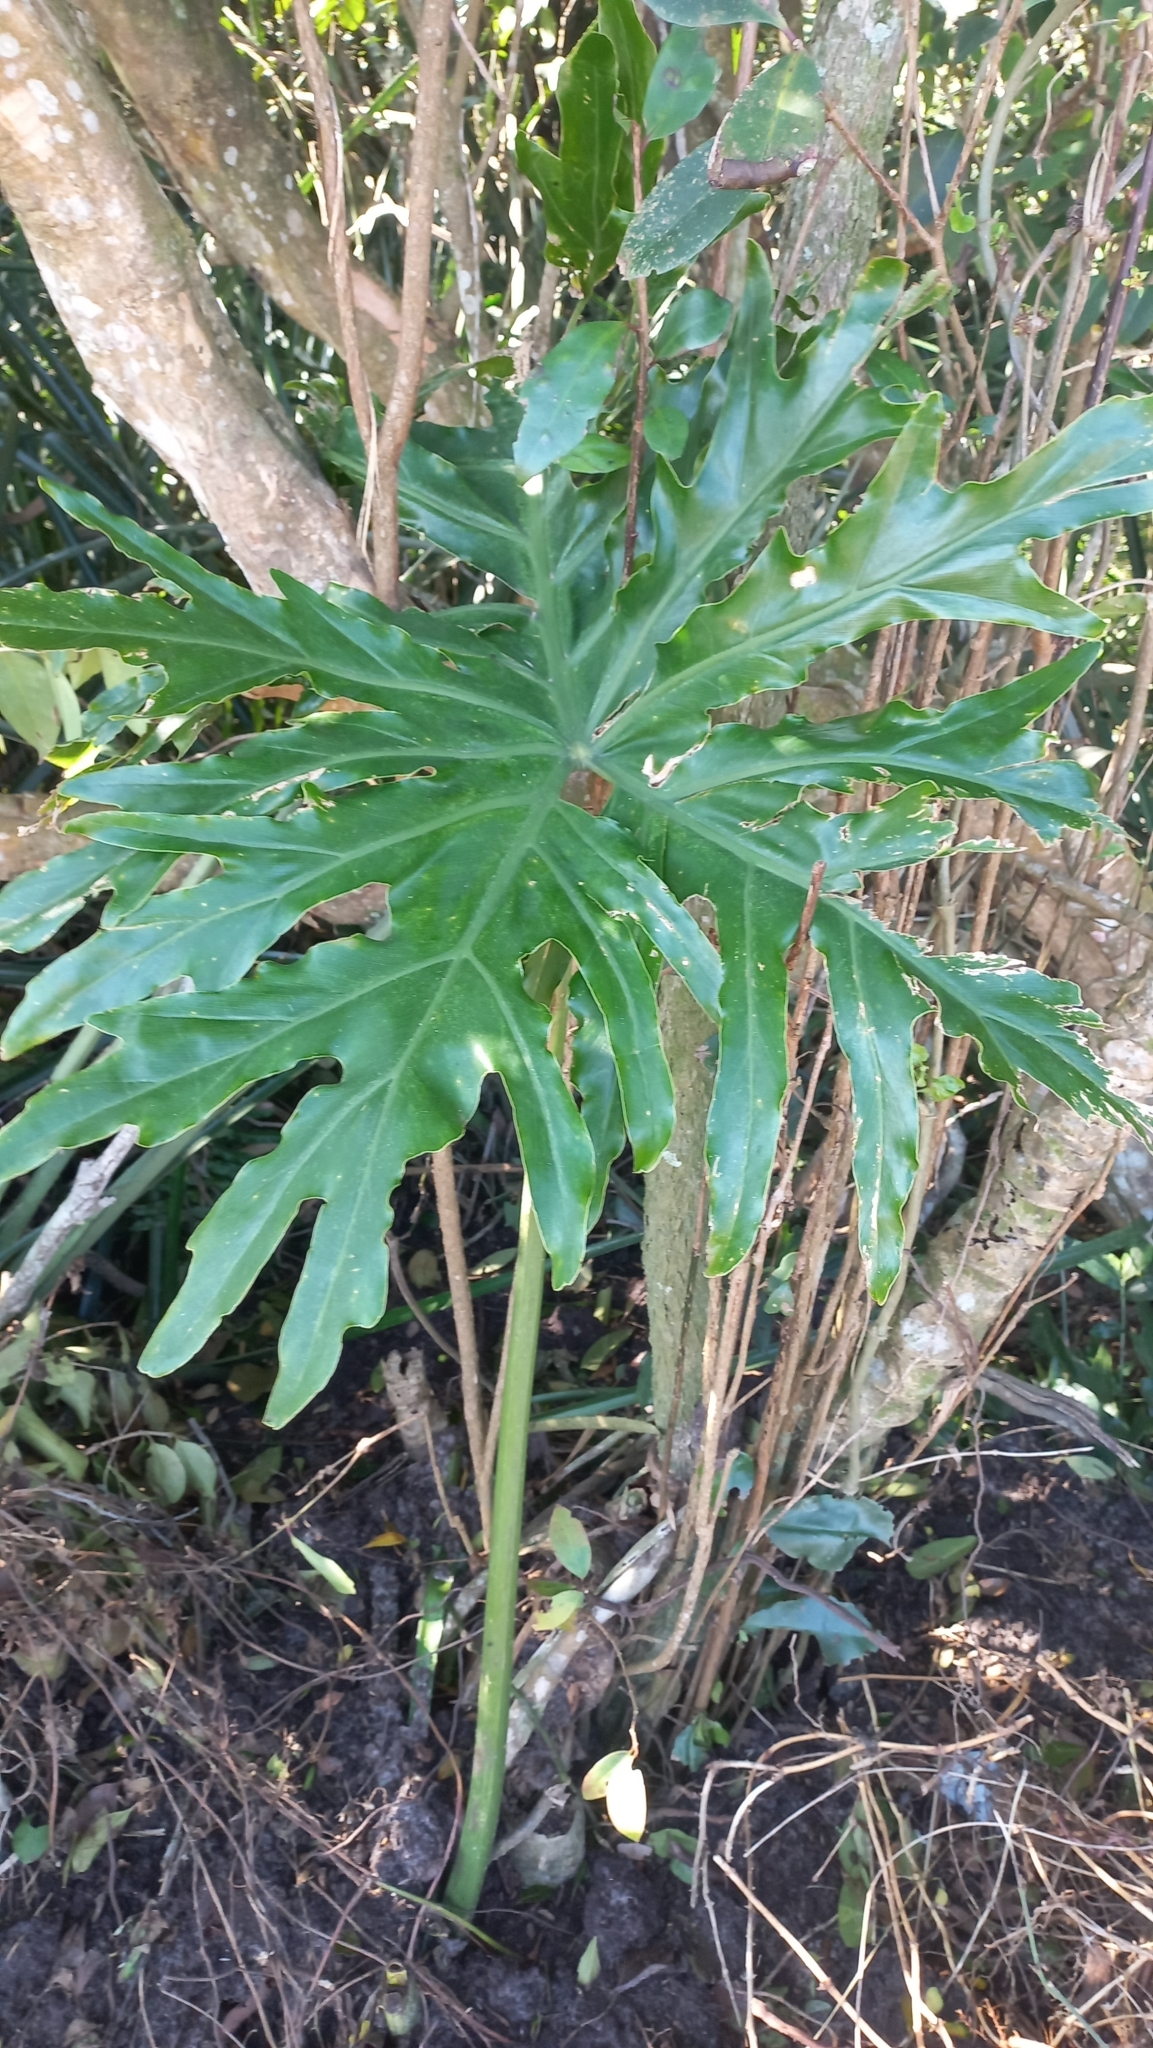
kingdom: Plantae
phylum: Tracheophyta
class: Liliopsida
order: Alismatales
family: Araceae
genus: Thaumatophyllum
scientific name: Thaumatophyllum bipinnatifidum
